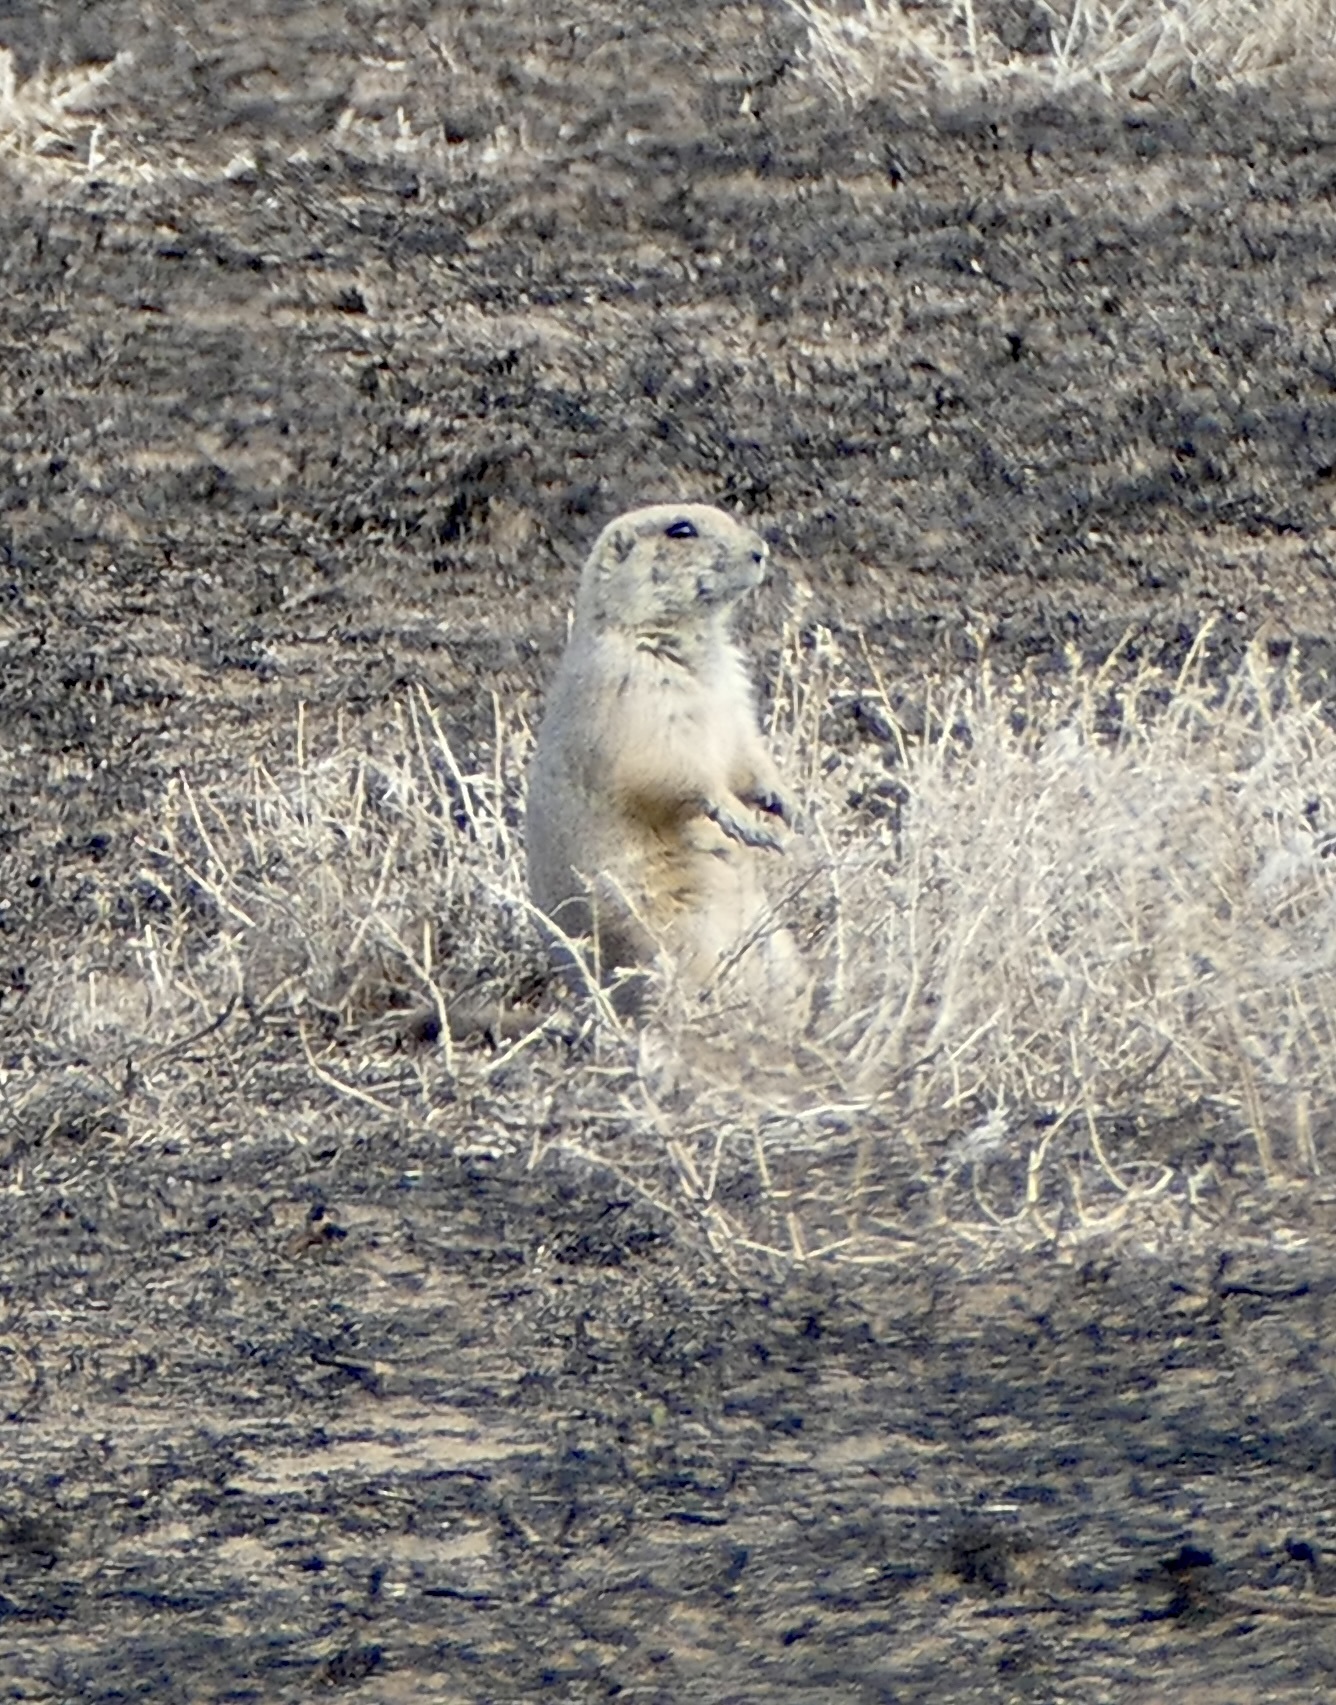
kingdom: Animalia
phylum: Chordata
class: Mammalia
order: Rodentia
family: Sciuridae
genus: Cynomys
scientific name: Cynomys ludovicianus
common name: Black-tailed prairie dog
